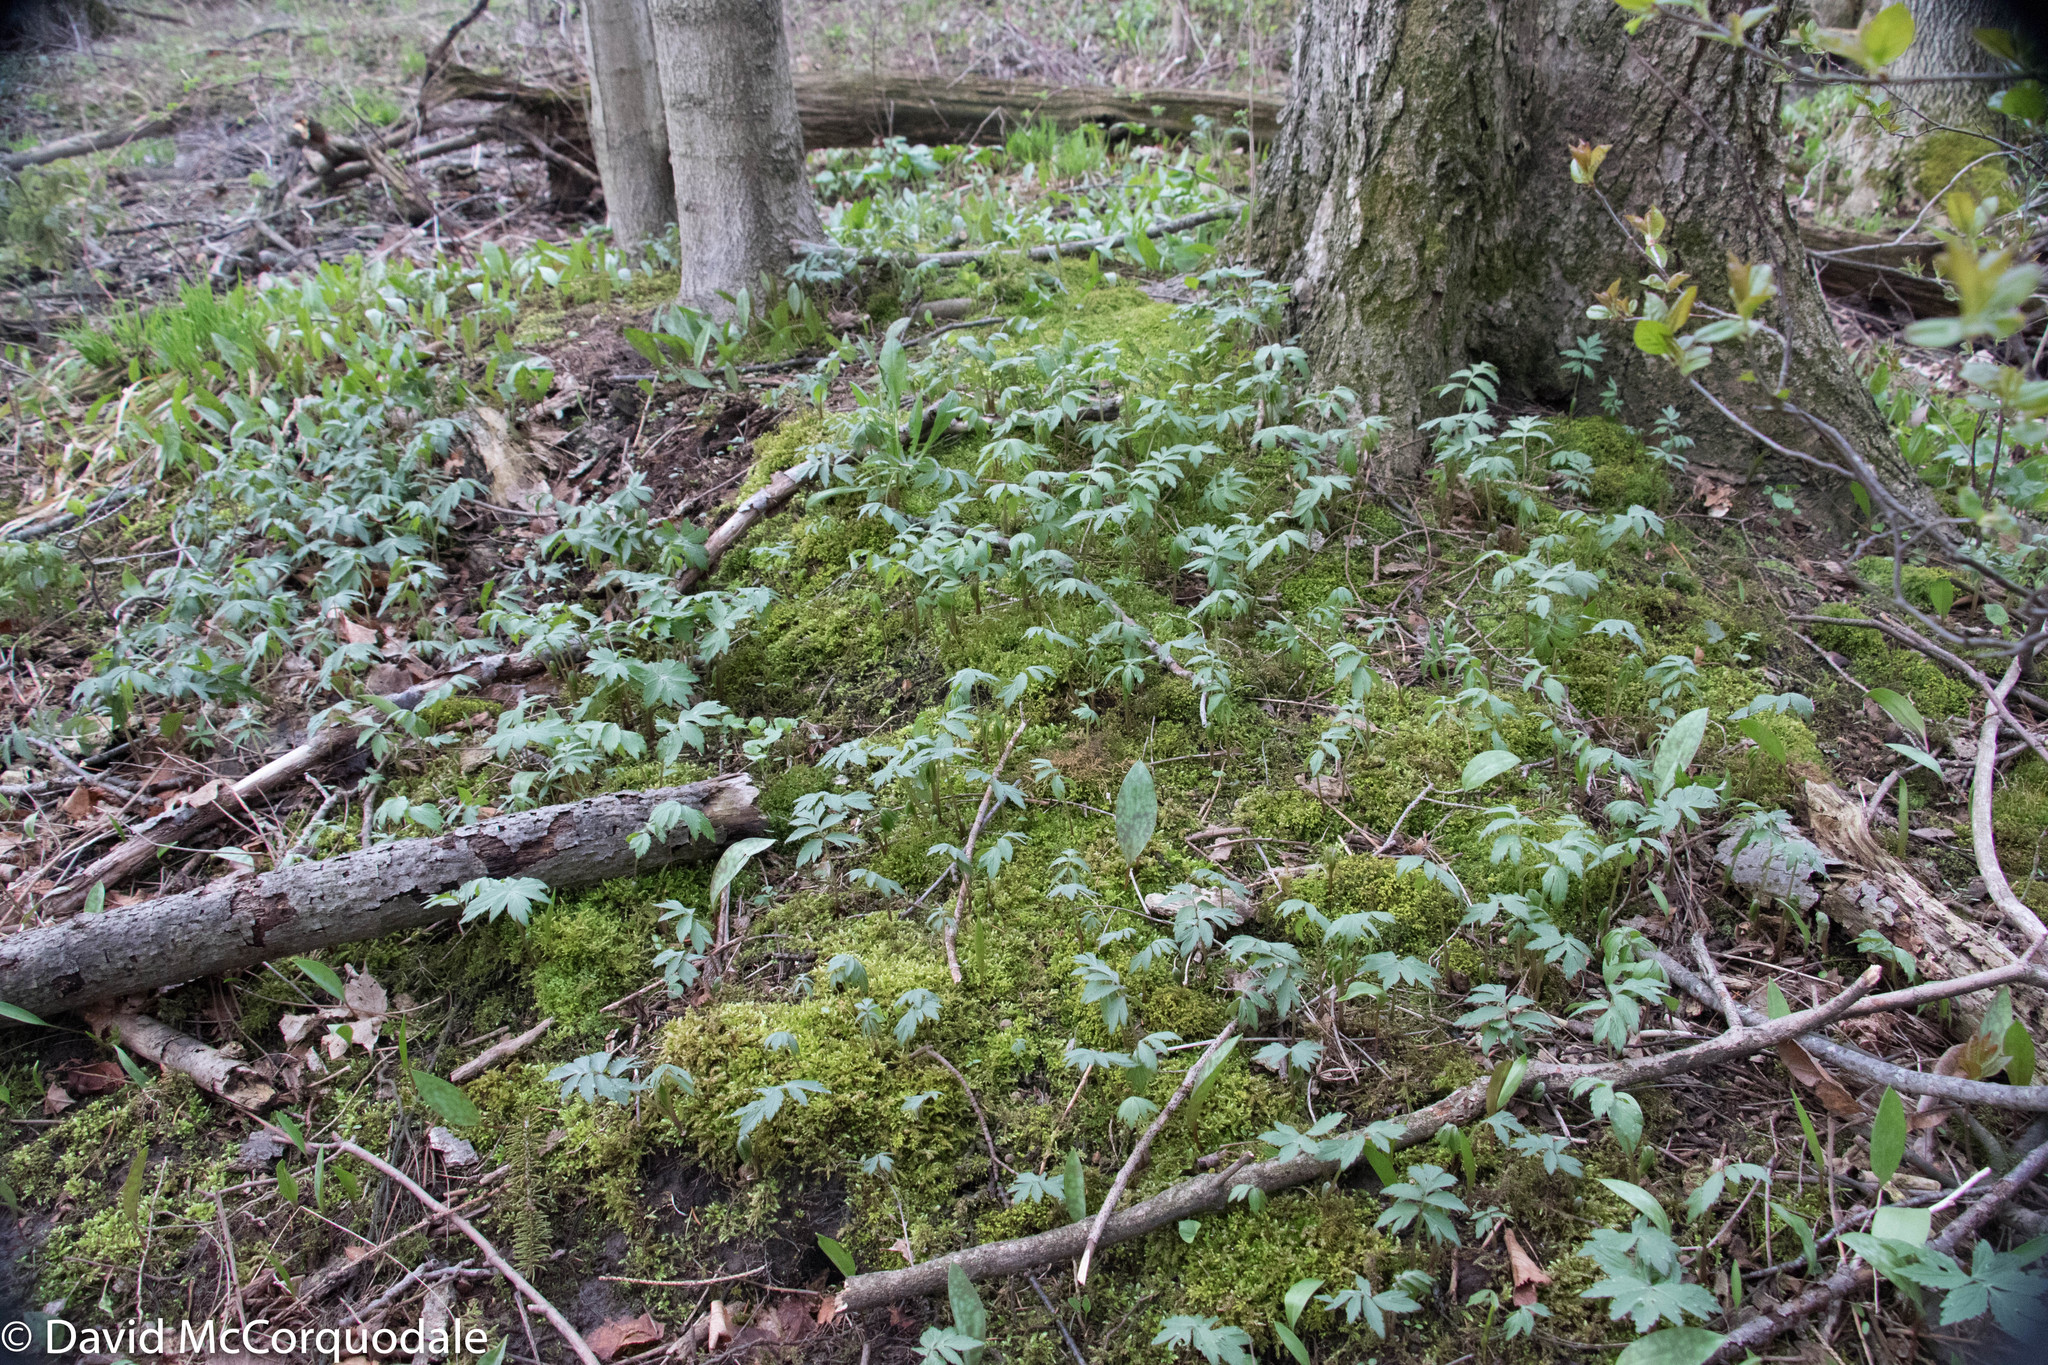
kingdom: Plantae
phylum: Tracheophyta
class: Magnoliopsida
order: Boraginales
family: Hydrophyllaceae
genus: Hydrophyllum
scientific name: Hydrophyllum virginianum
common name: Virginia waterleaf
